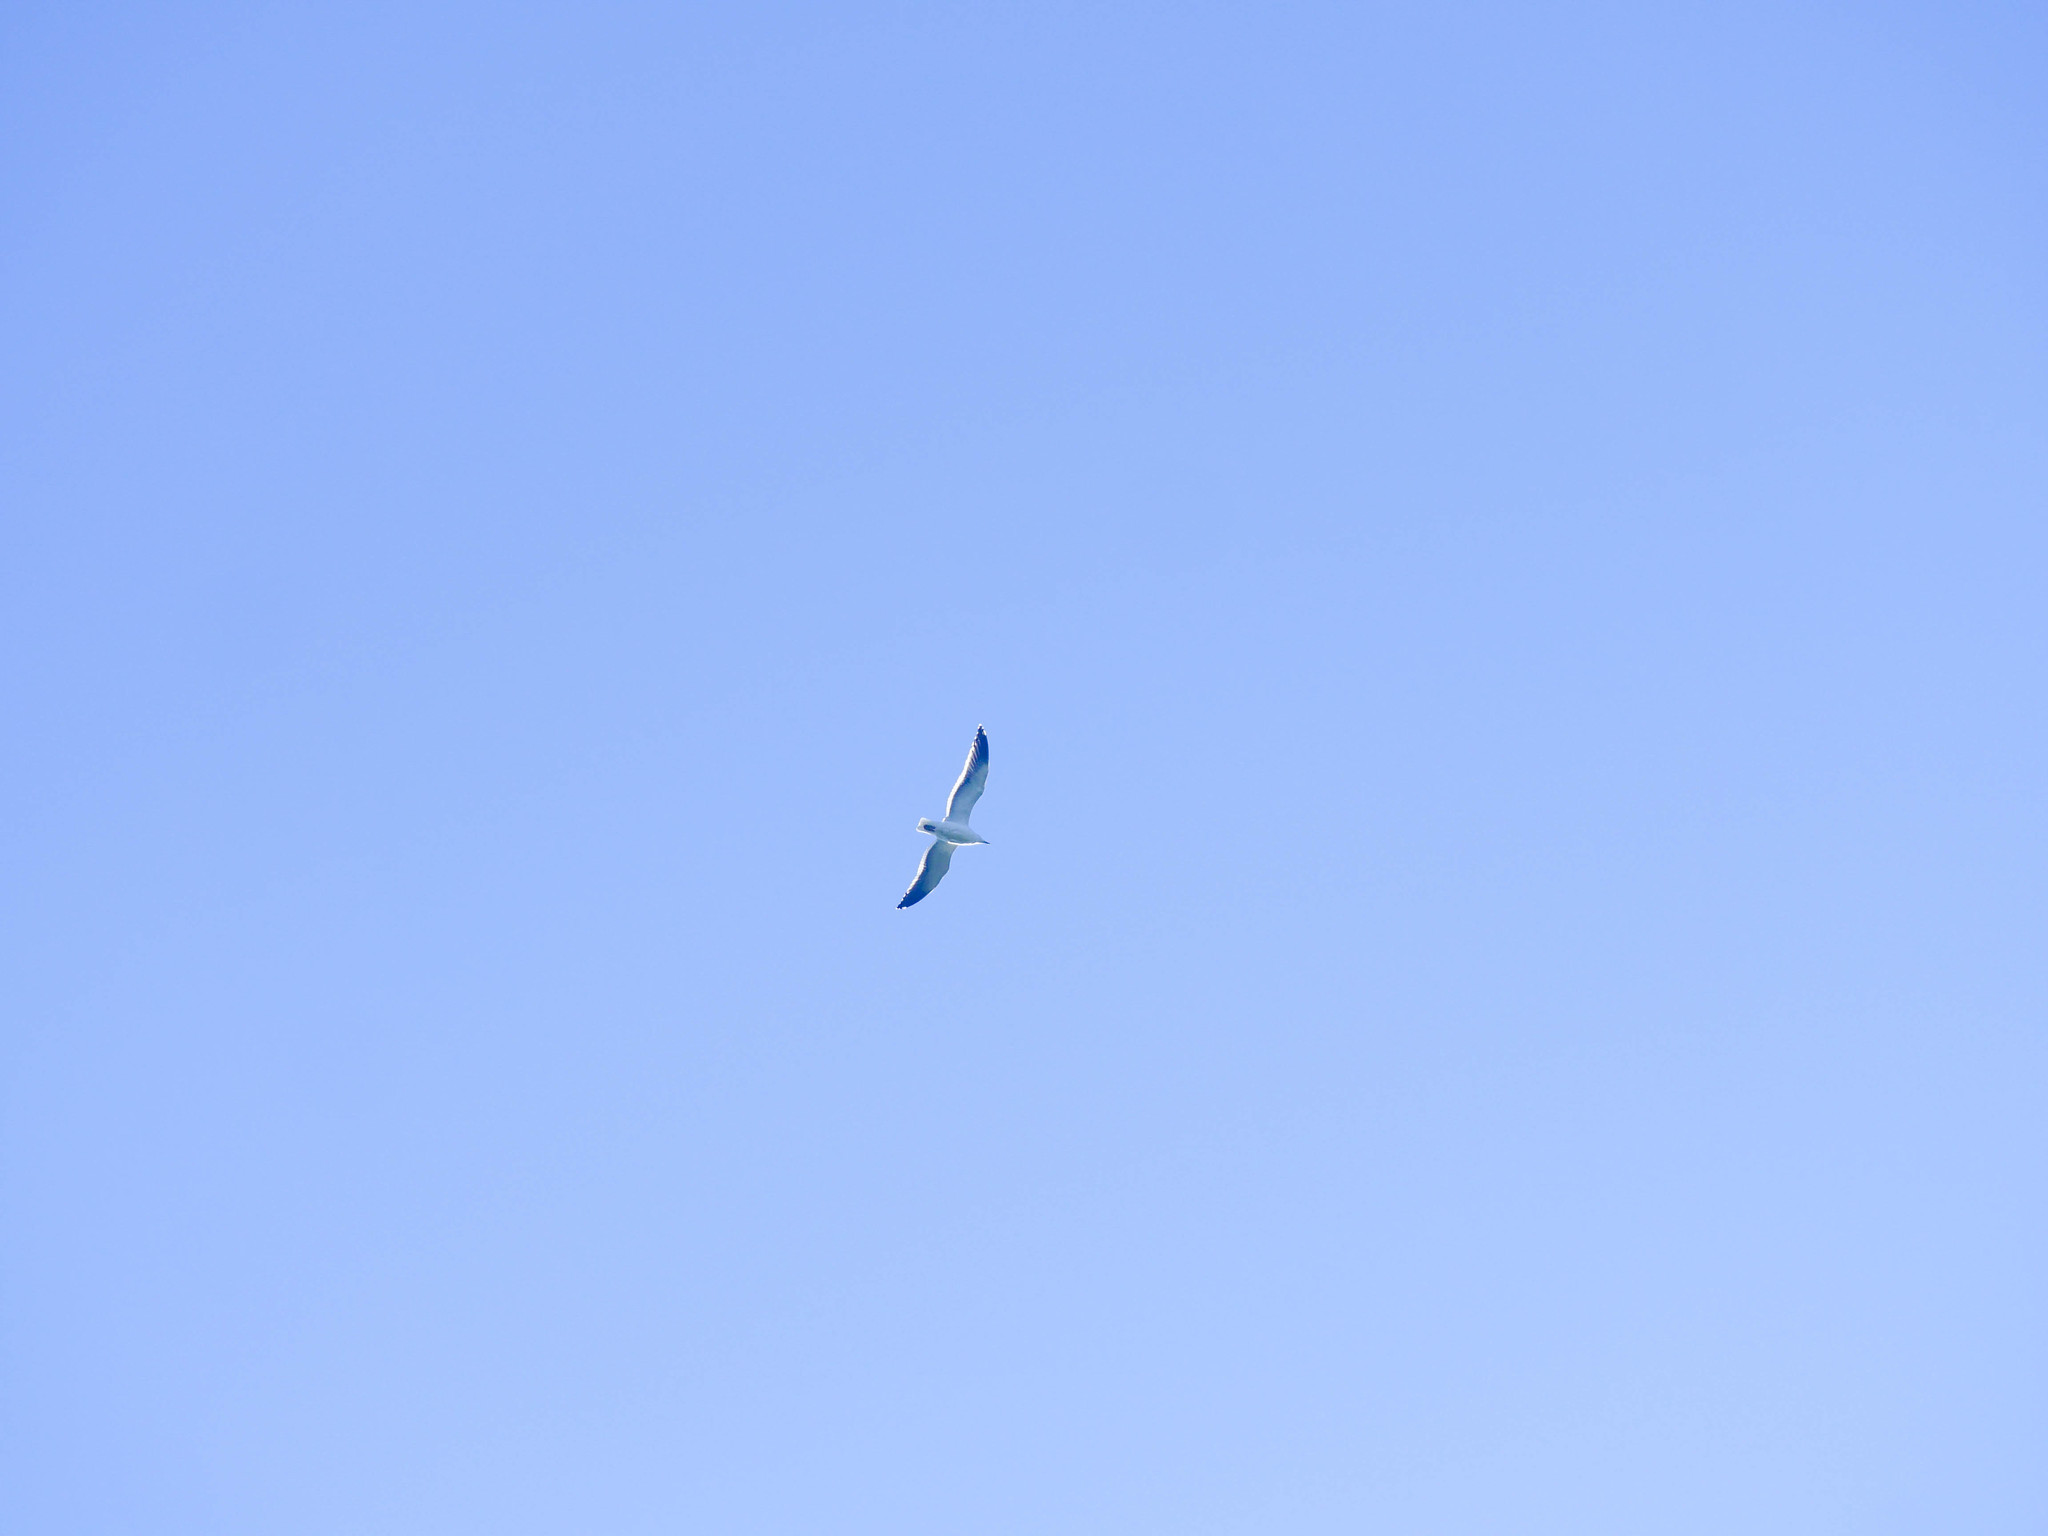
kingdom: Animalia
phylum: Chordata
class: Aves
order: Charadriiformes
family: Laridae
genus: Larus
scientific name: Larus dominicanus
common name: Kelp gull
